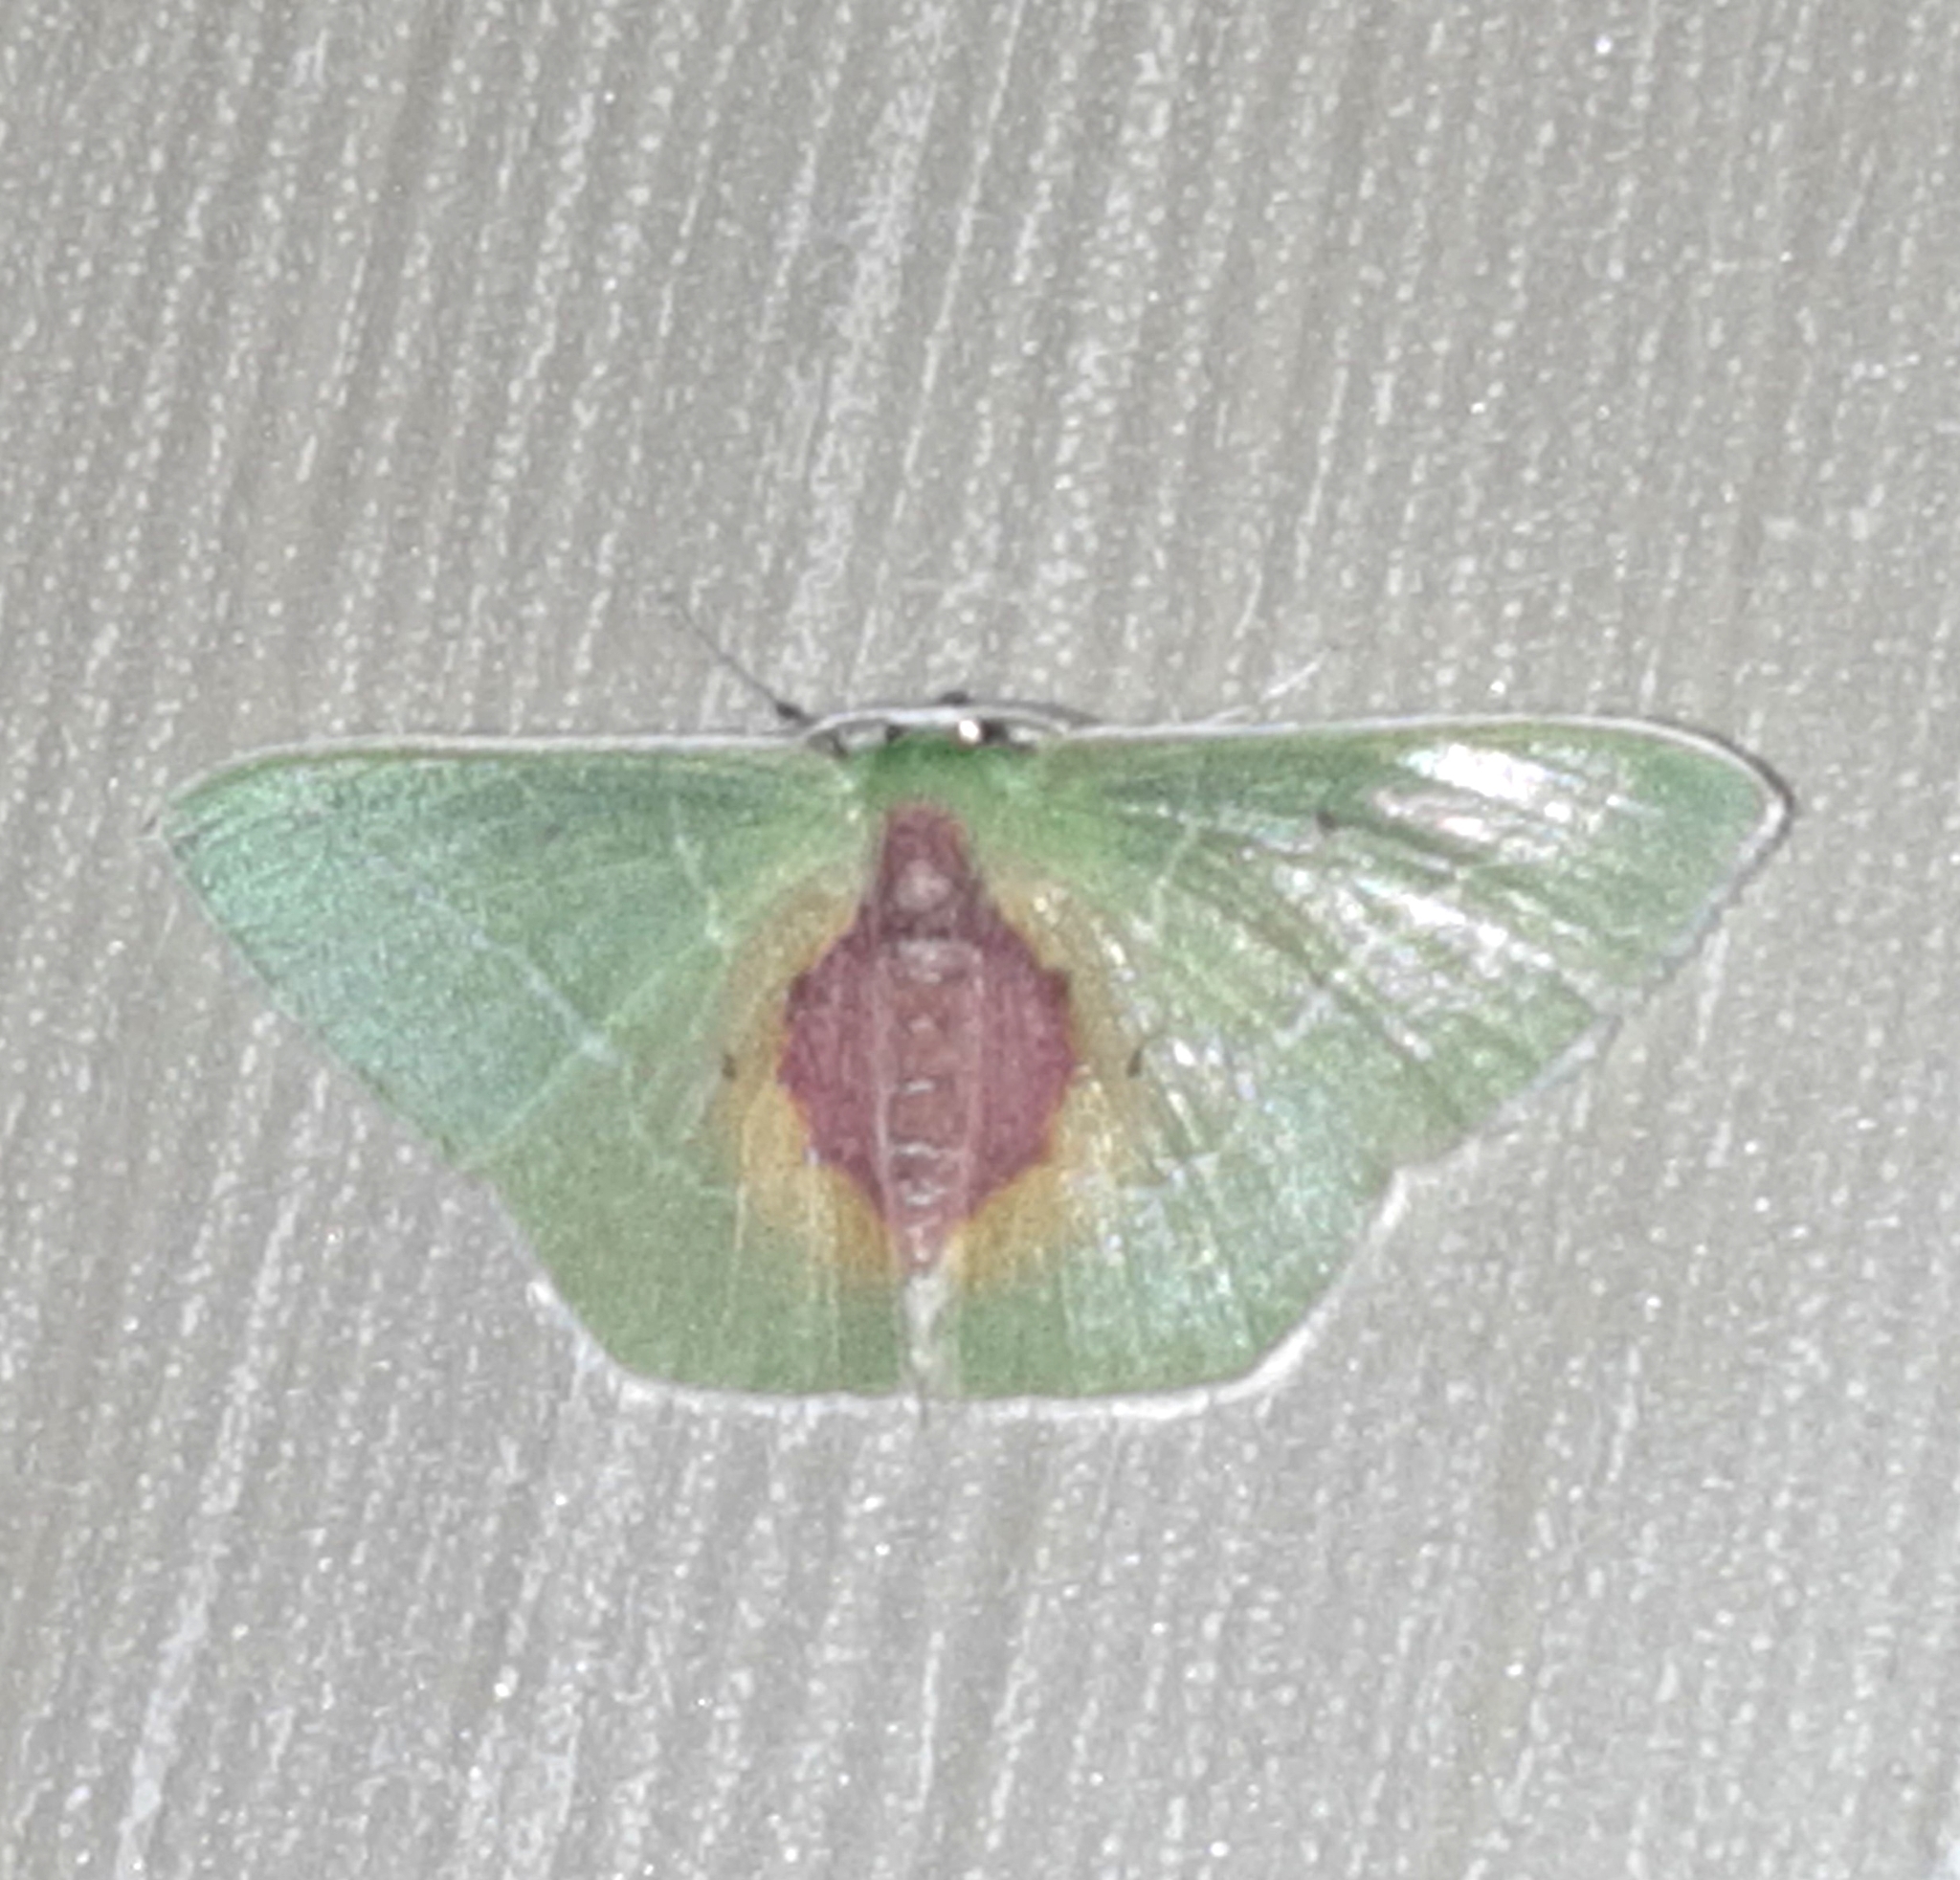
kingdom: Animalia
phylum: Arthropoda
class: Insecta
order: Lepidoptera
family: Geometridae
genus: Nemoria
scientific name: Nemoria astraea
